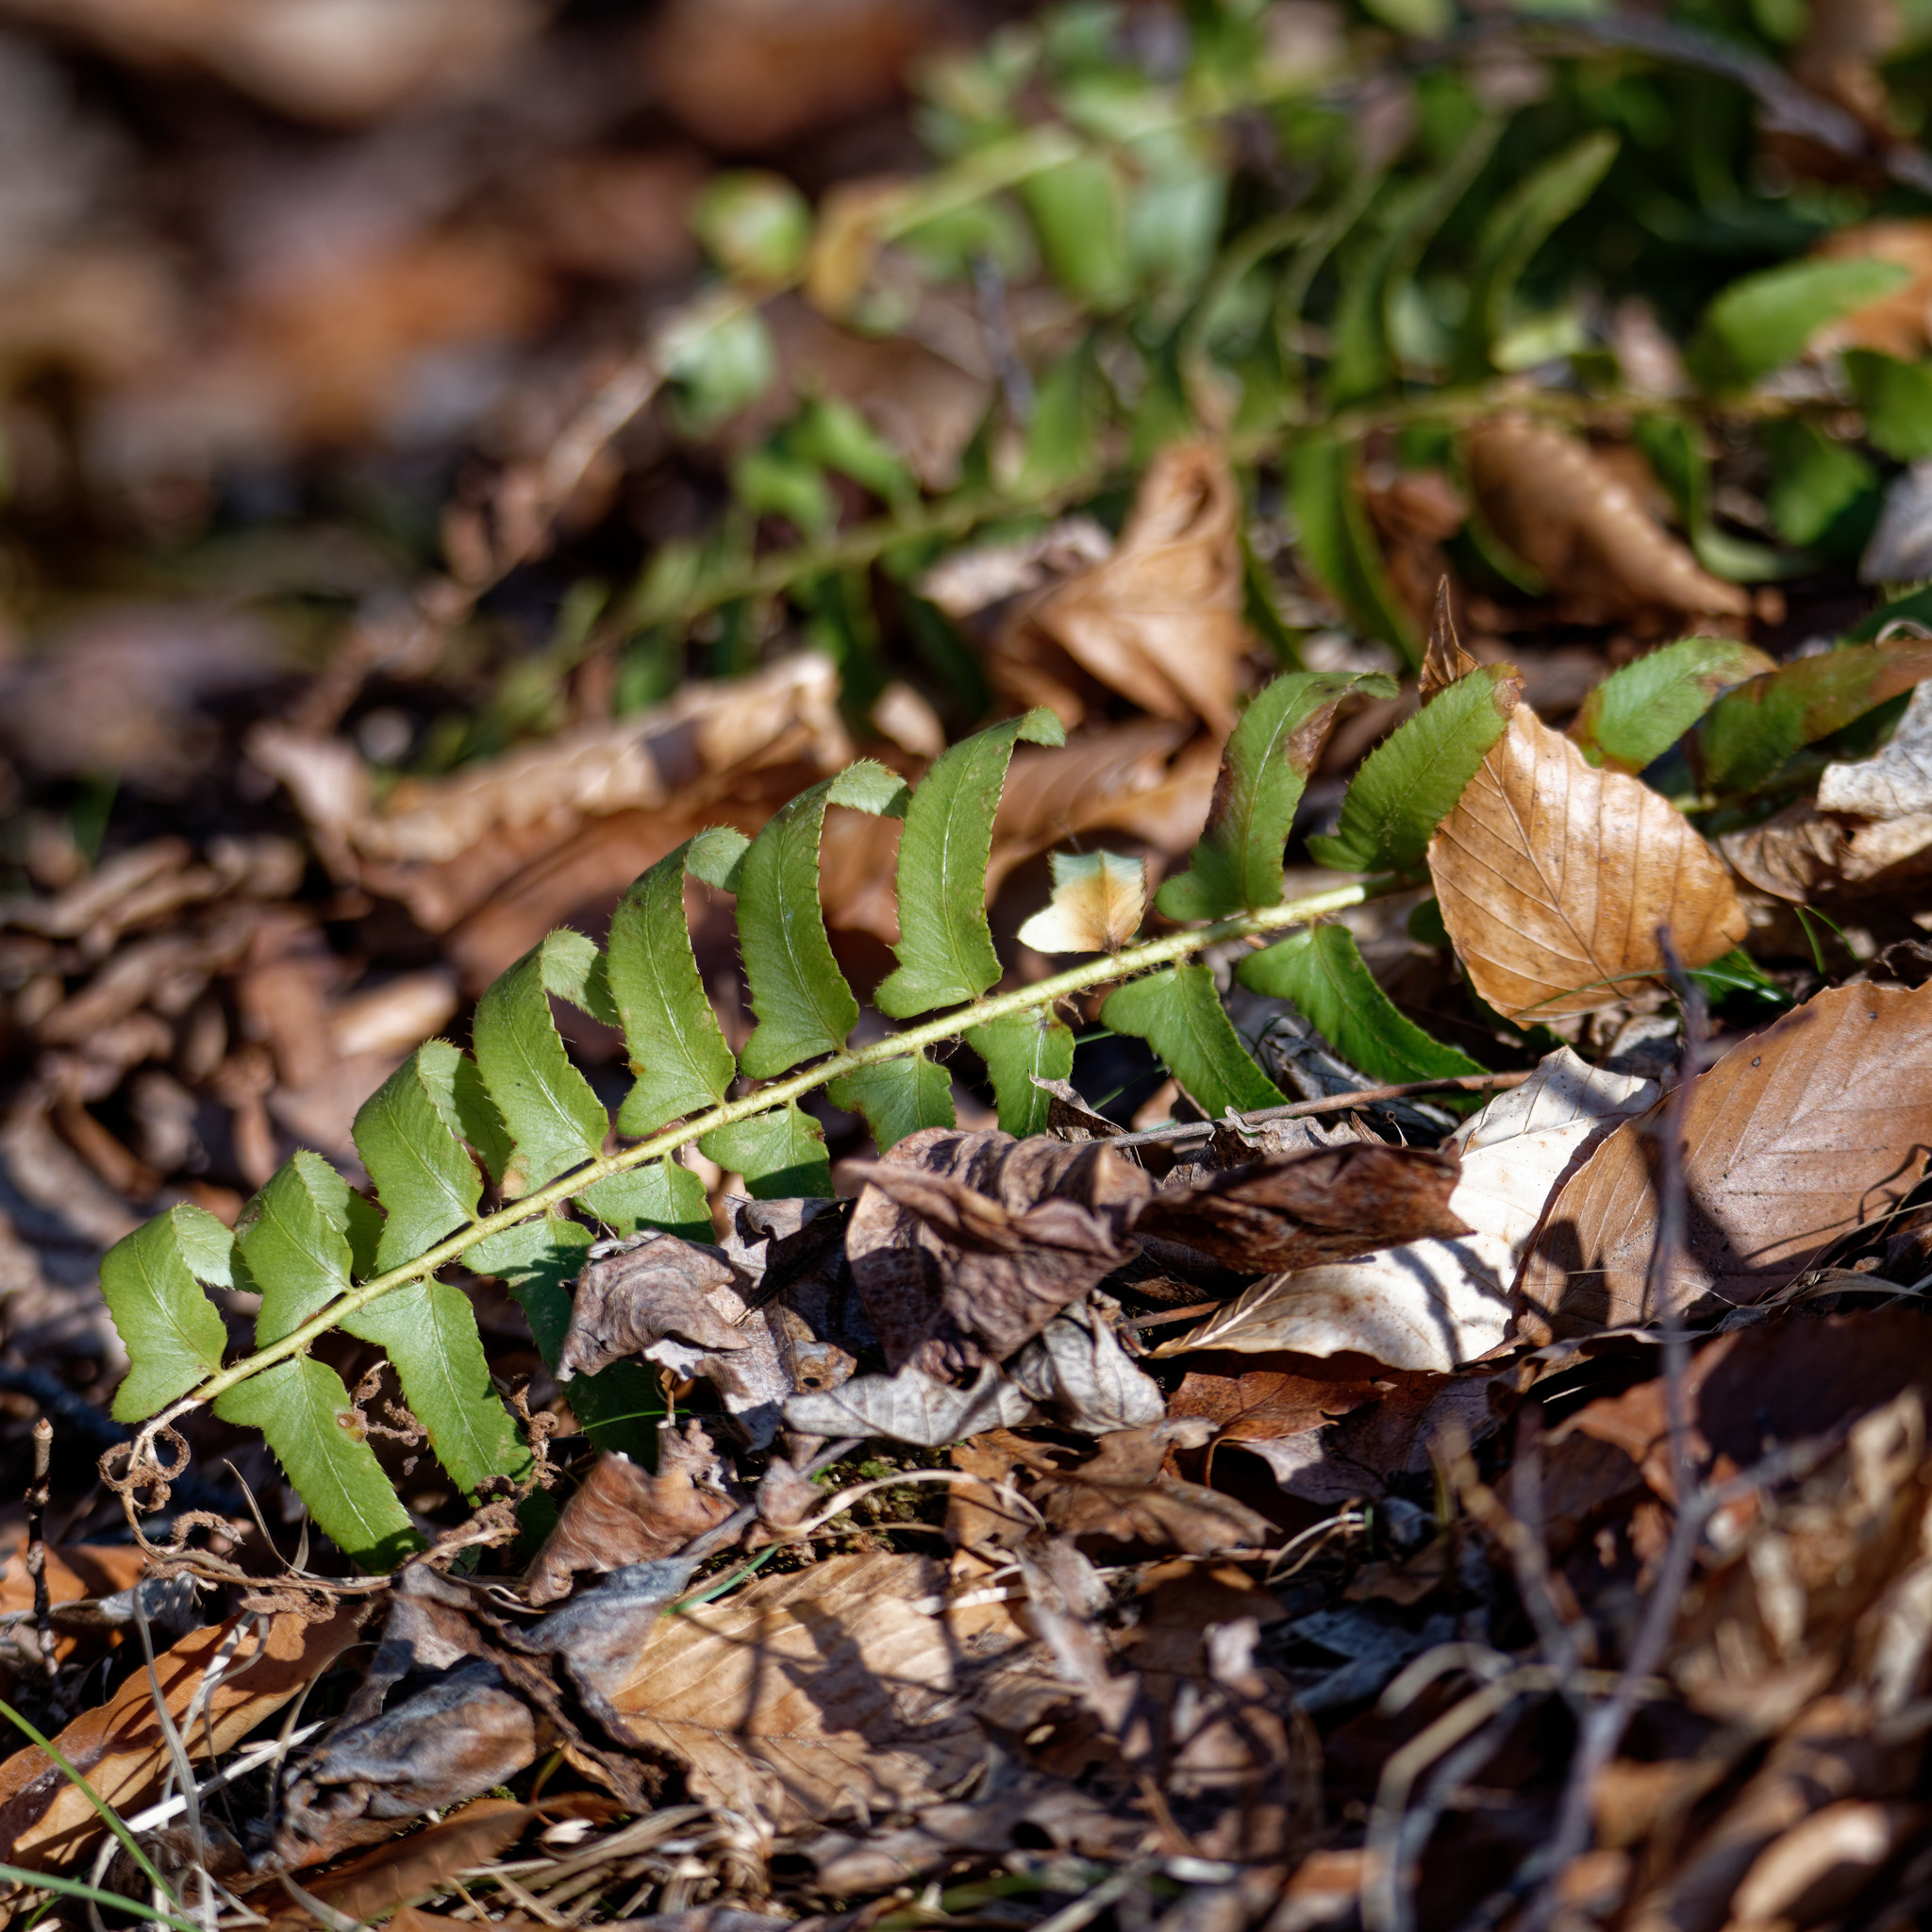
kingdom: Plantae
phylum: Tracheophyta
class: Polypodiopsida
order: Polypodiales
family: Dryopteridaceae
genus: Polystichum
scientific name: Polystichum acrostichoides
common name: Christmas fern
